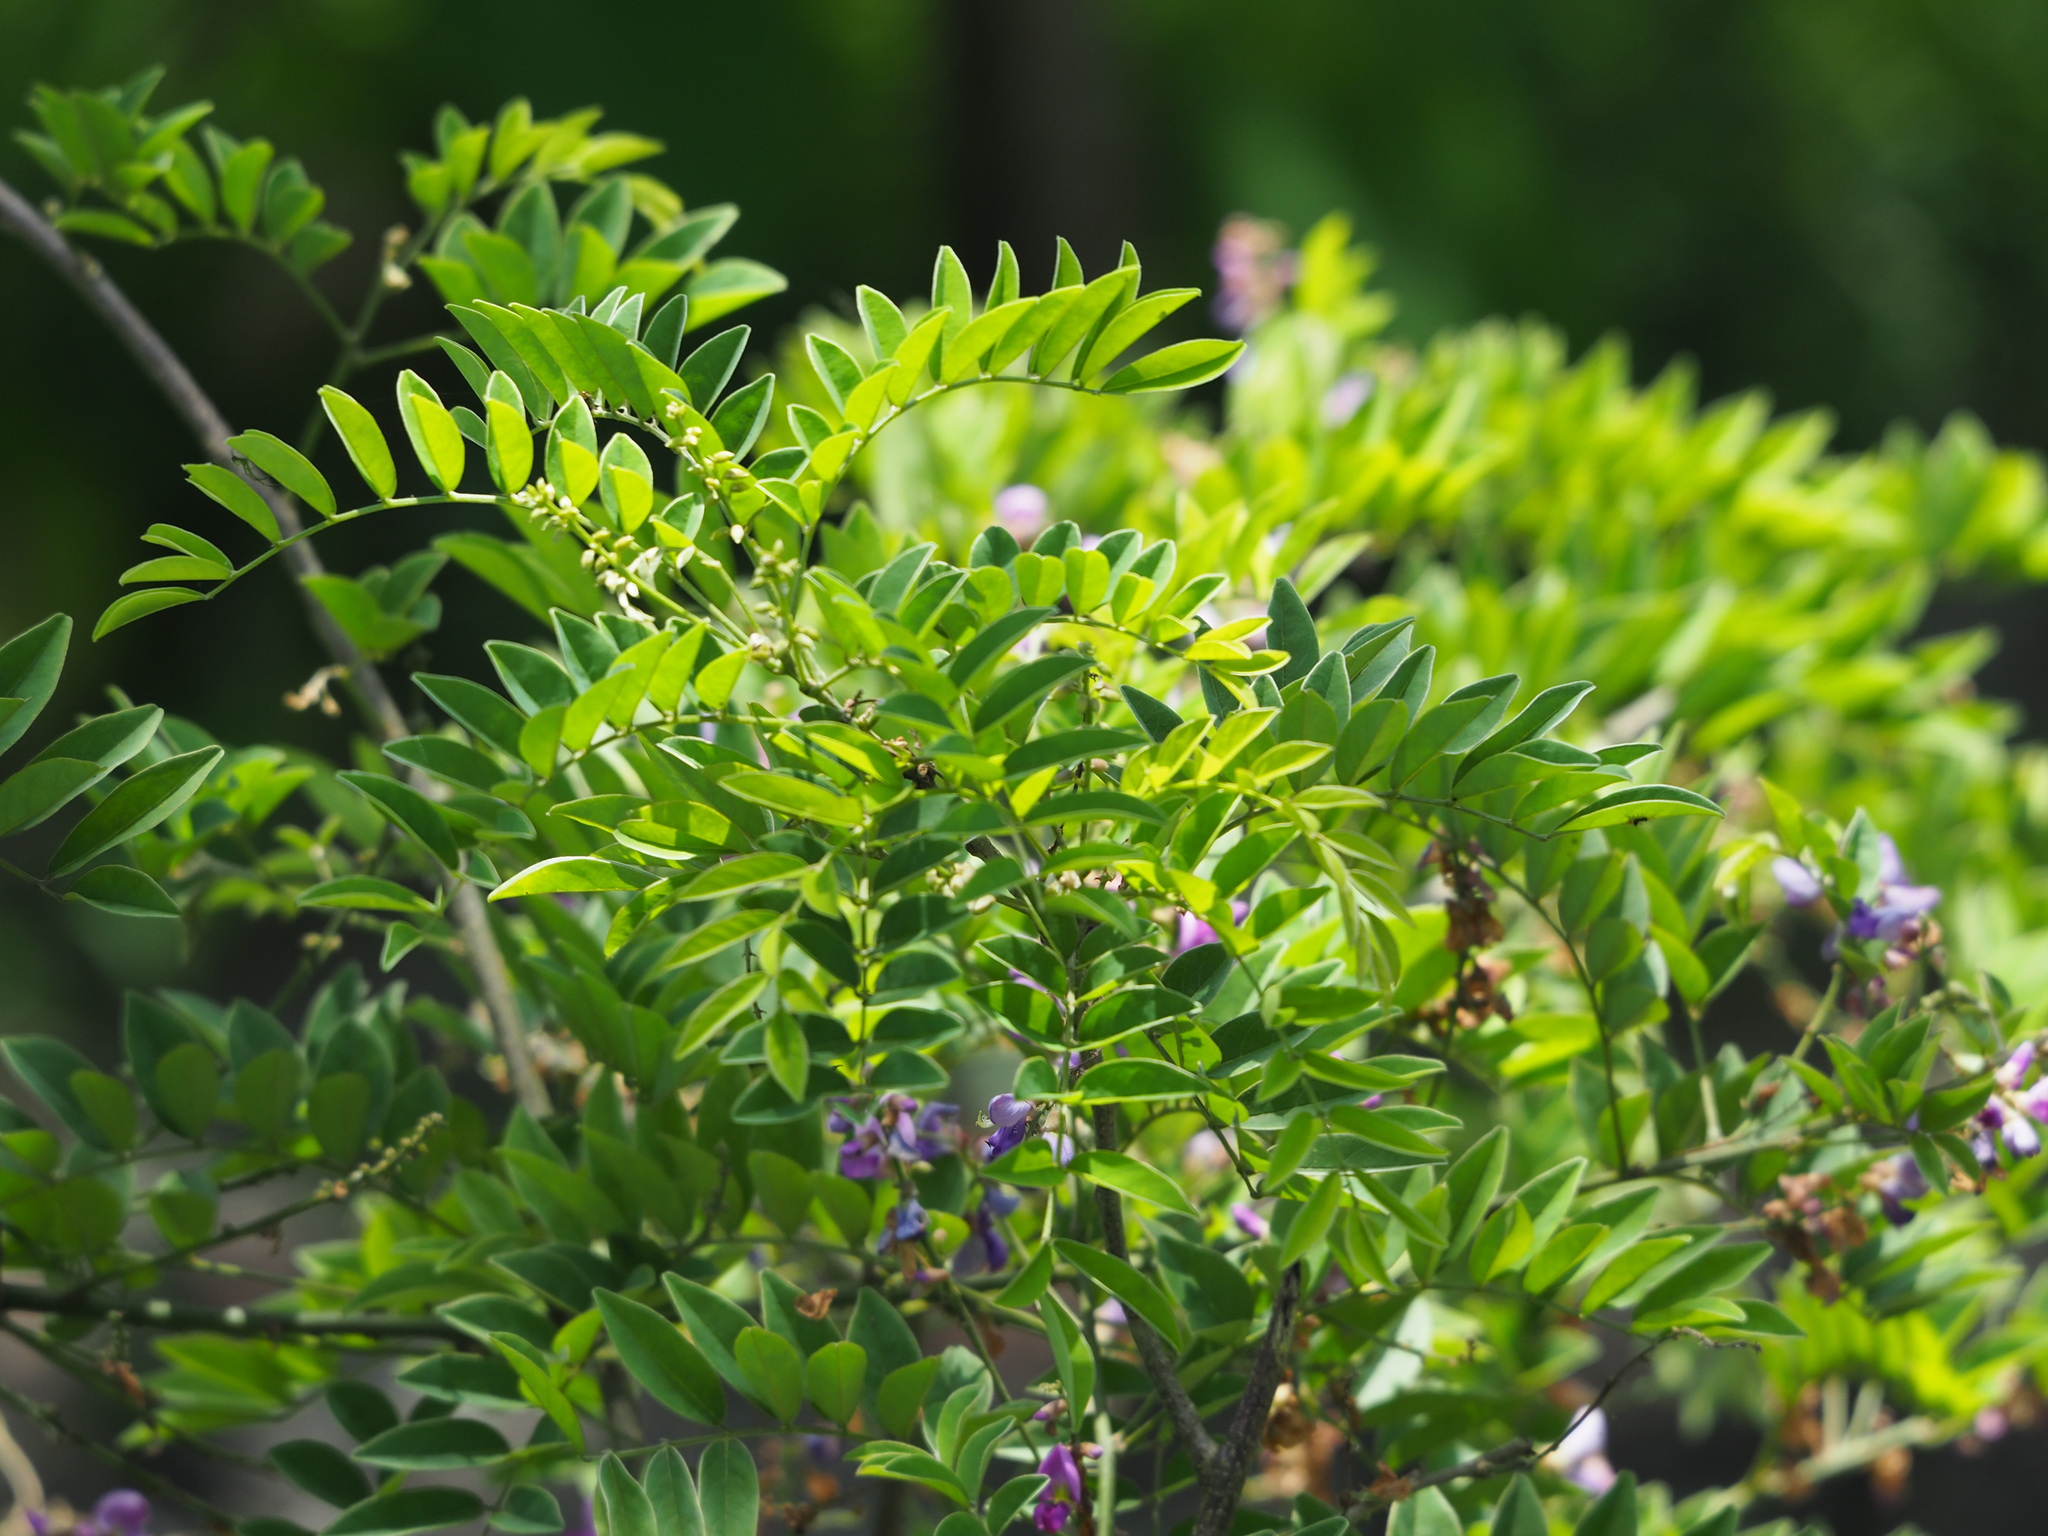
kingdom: Plantae
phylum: Tracheophyta
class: Magnoliopsida
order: Fabales
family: Fabaceae
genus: Millettia
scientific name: Millettia pulchra
